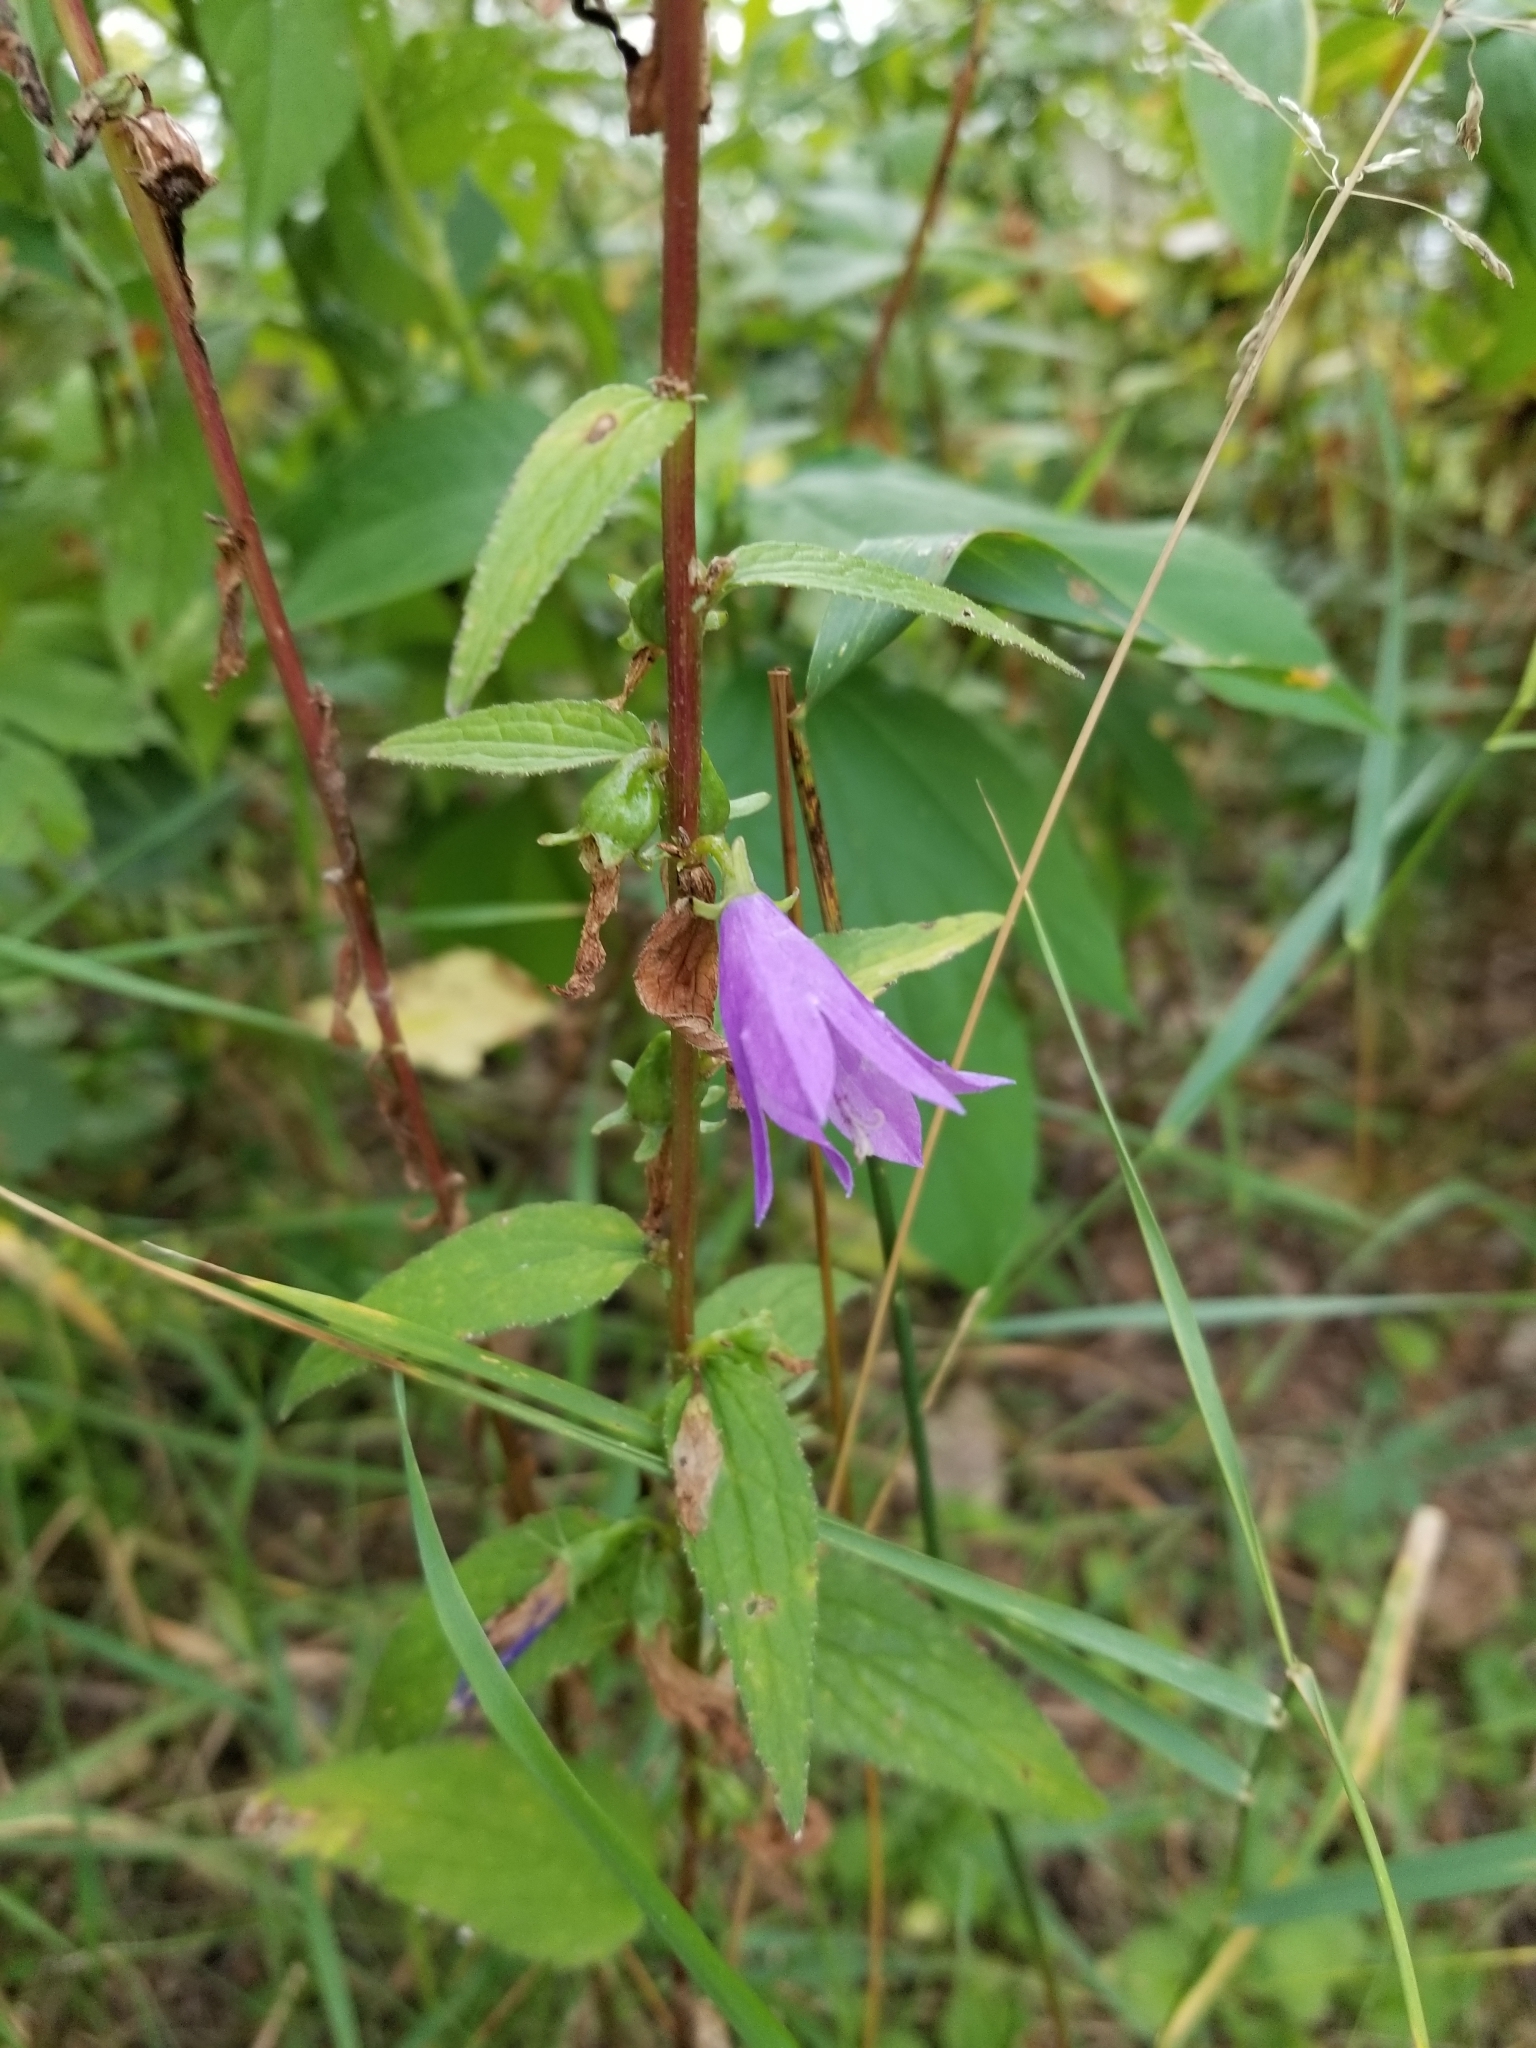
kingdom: Plantae
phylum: Tracheophyta
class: Magnoliopsida
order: Asterales
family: Campanulaceae
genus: Campanula
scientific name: Campanula rapunculoides
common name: Creeping bellflower
